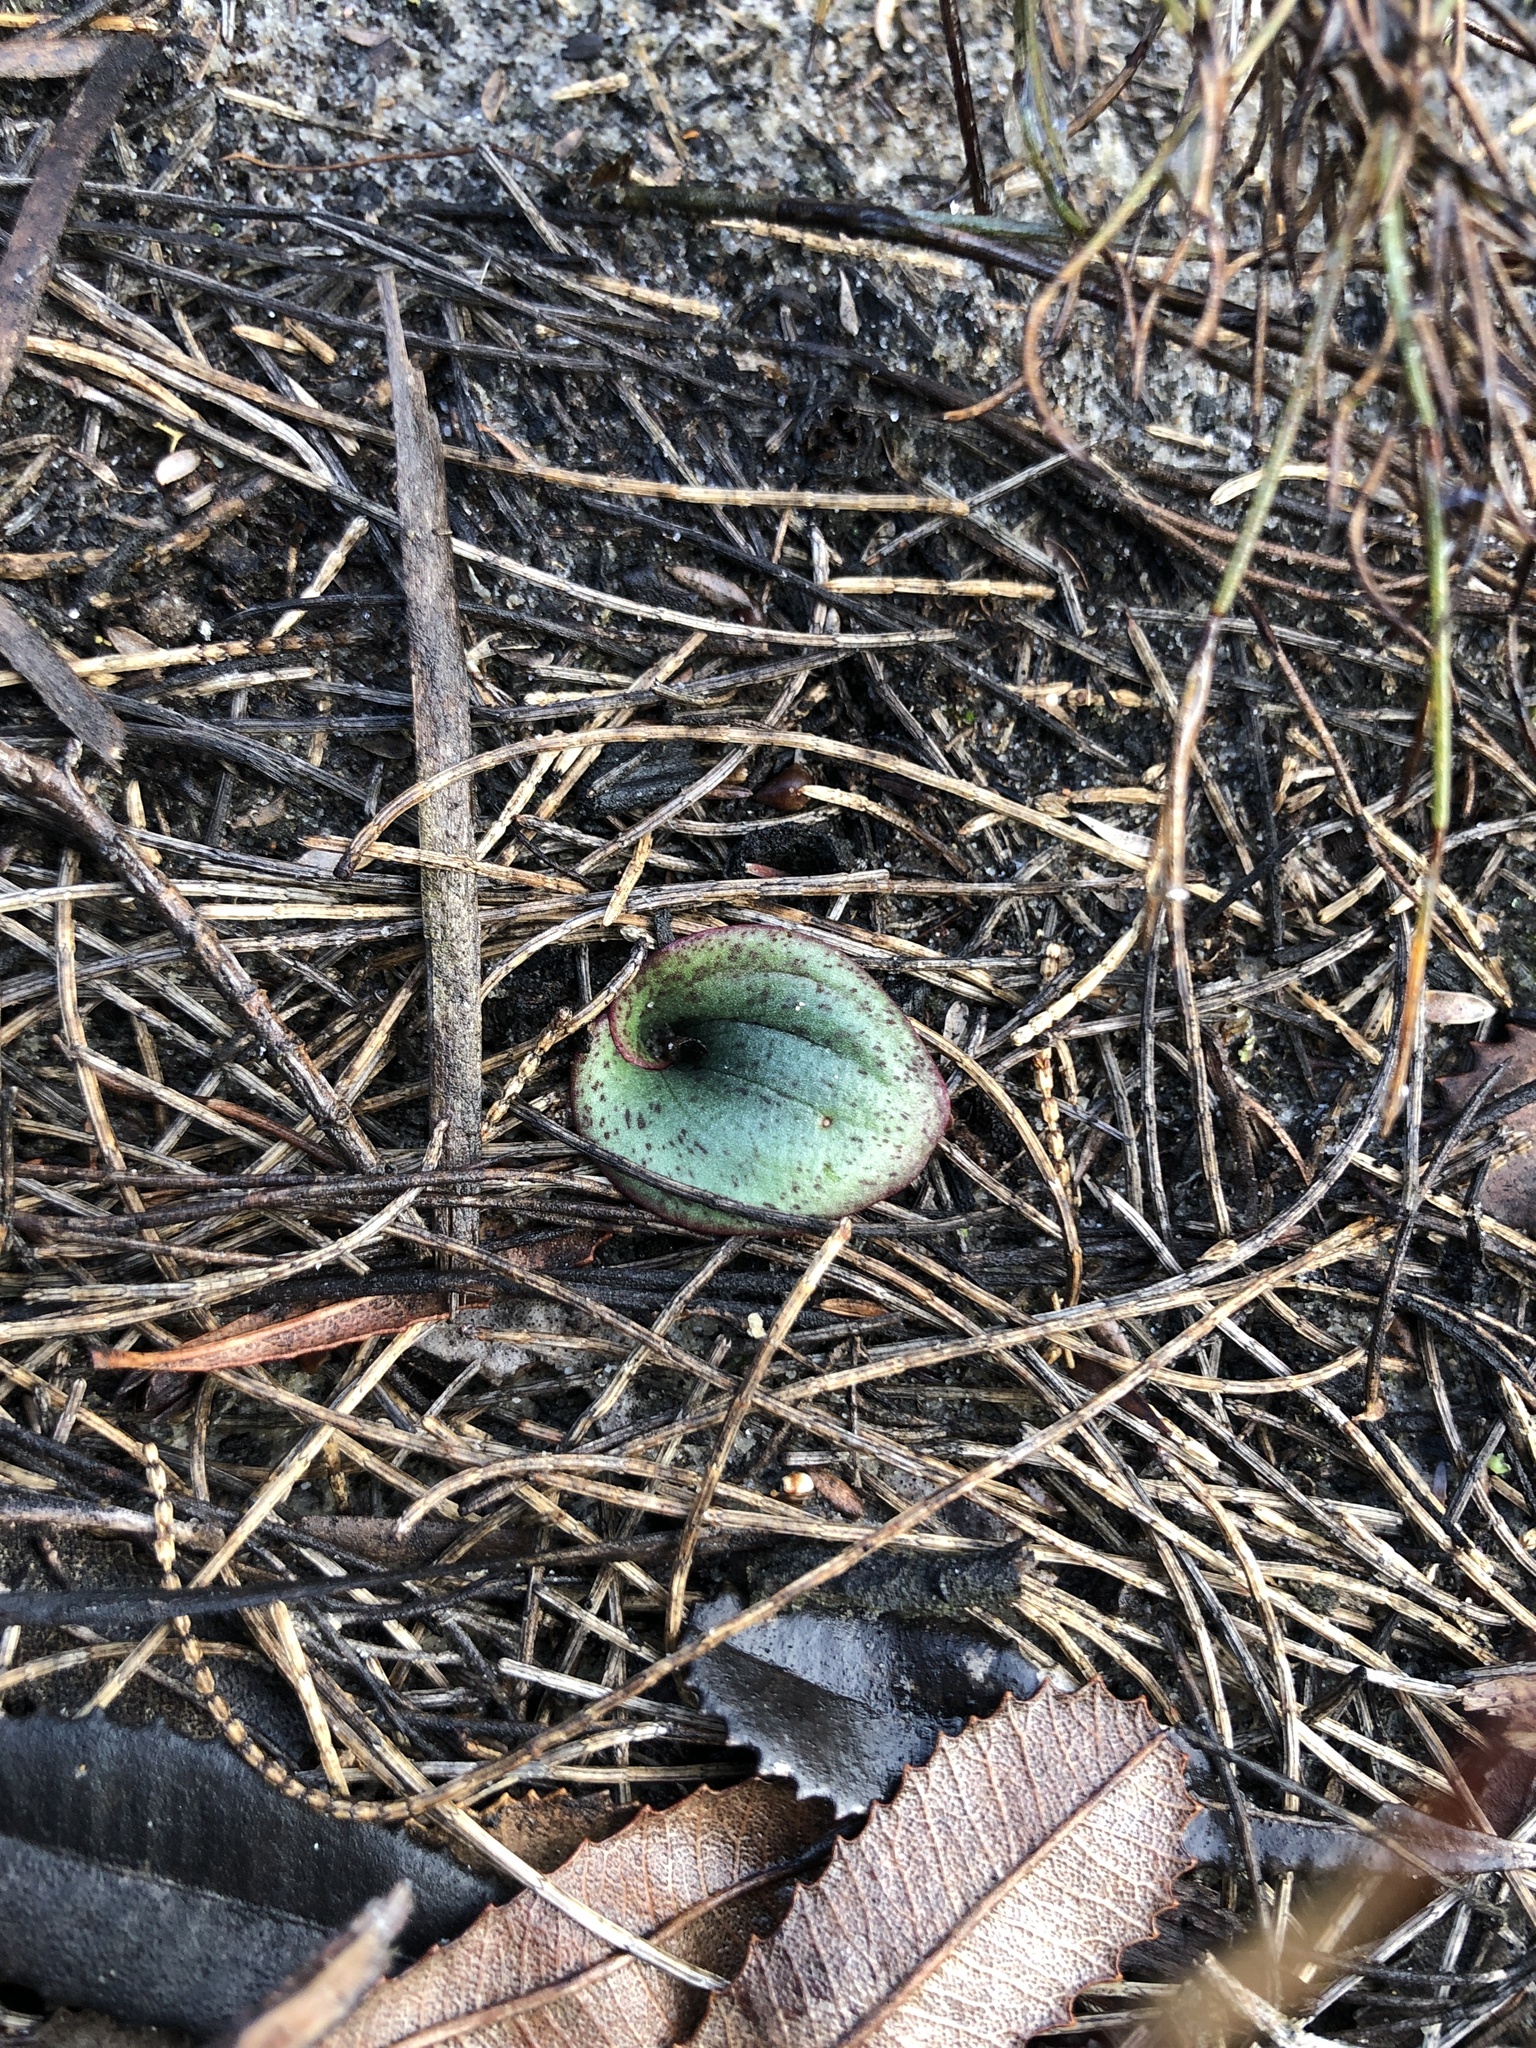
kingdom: Plantae
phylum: Tracheophyta
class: Liliopsida
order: Asparagales
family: Orchidaceae
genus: Pyrorchis
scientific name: Pyrorchis nigricans
